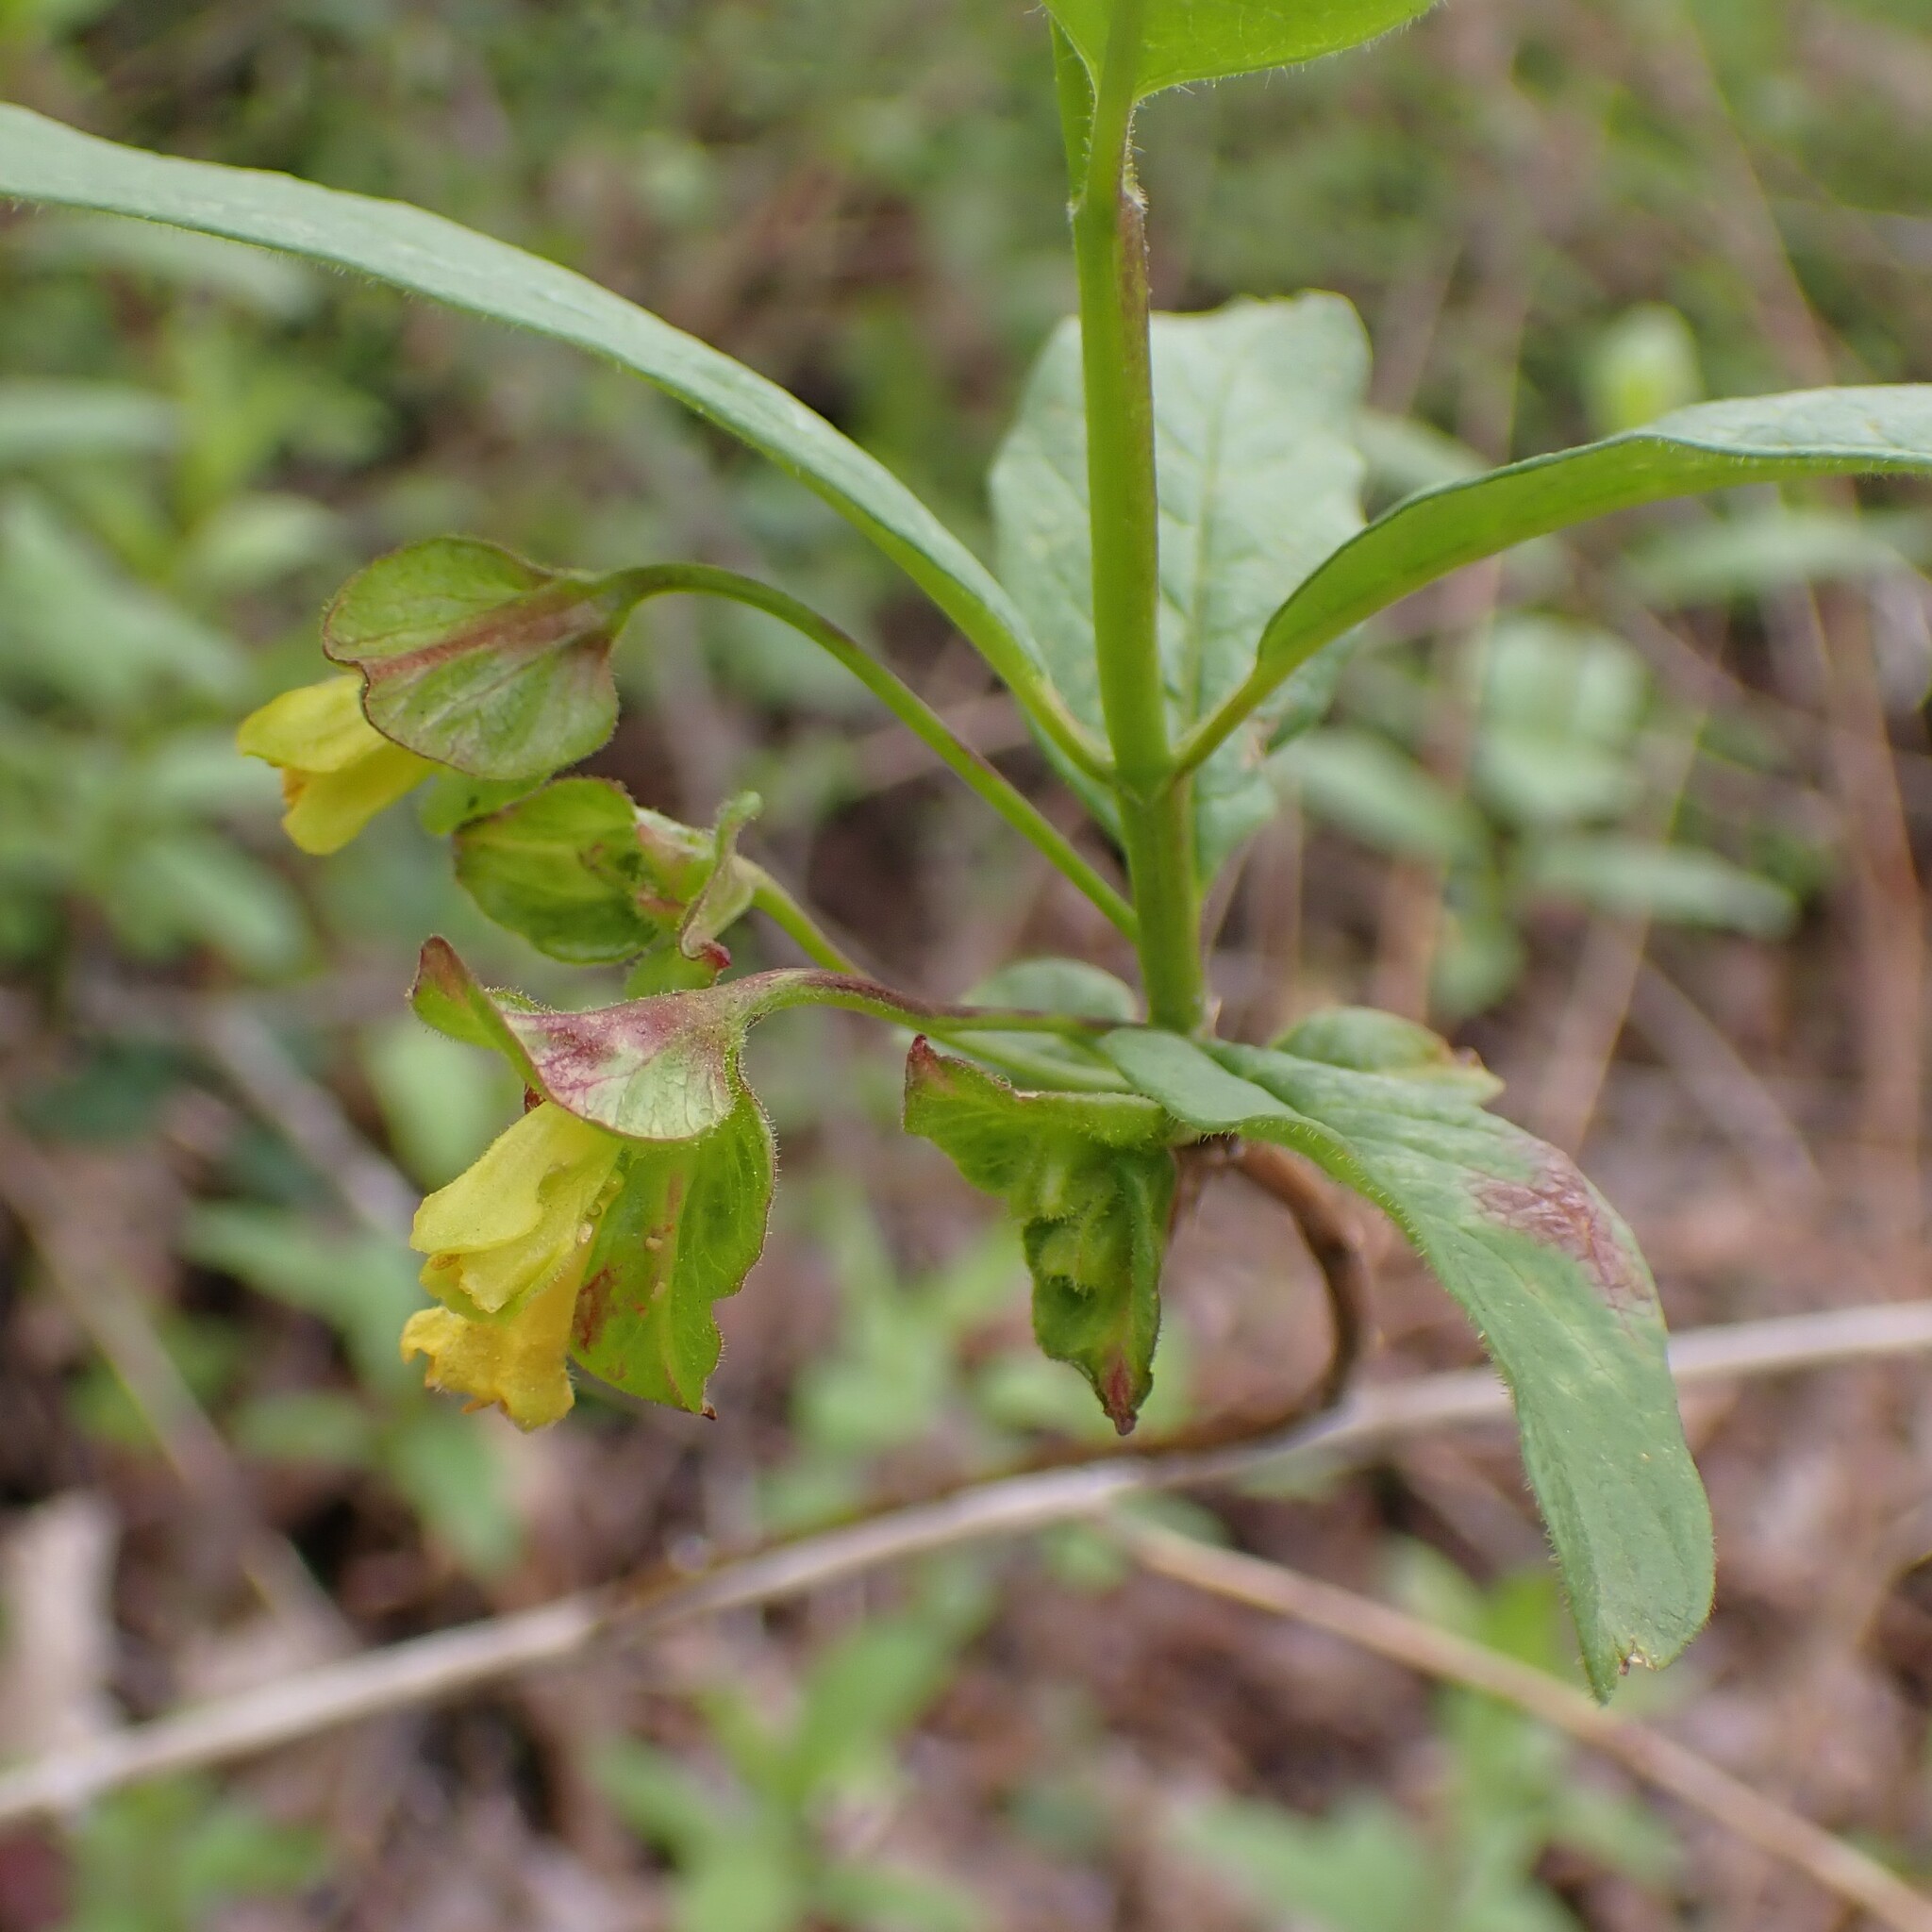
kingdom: Plantae
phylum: Tracheophyta
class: Magnoliopsida
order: Dipsacales
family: Caprifoliaceae
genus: Lonicera
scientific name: Lonicera involucrata
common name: Californian honeysuckle
